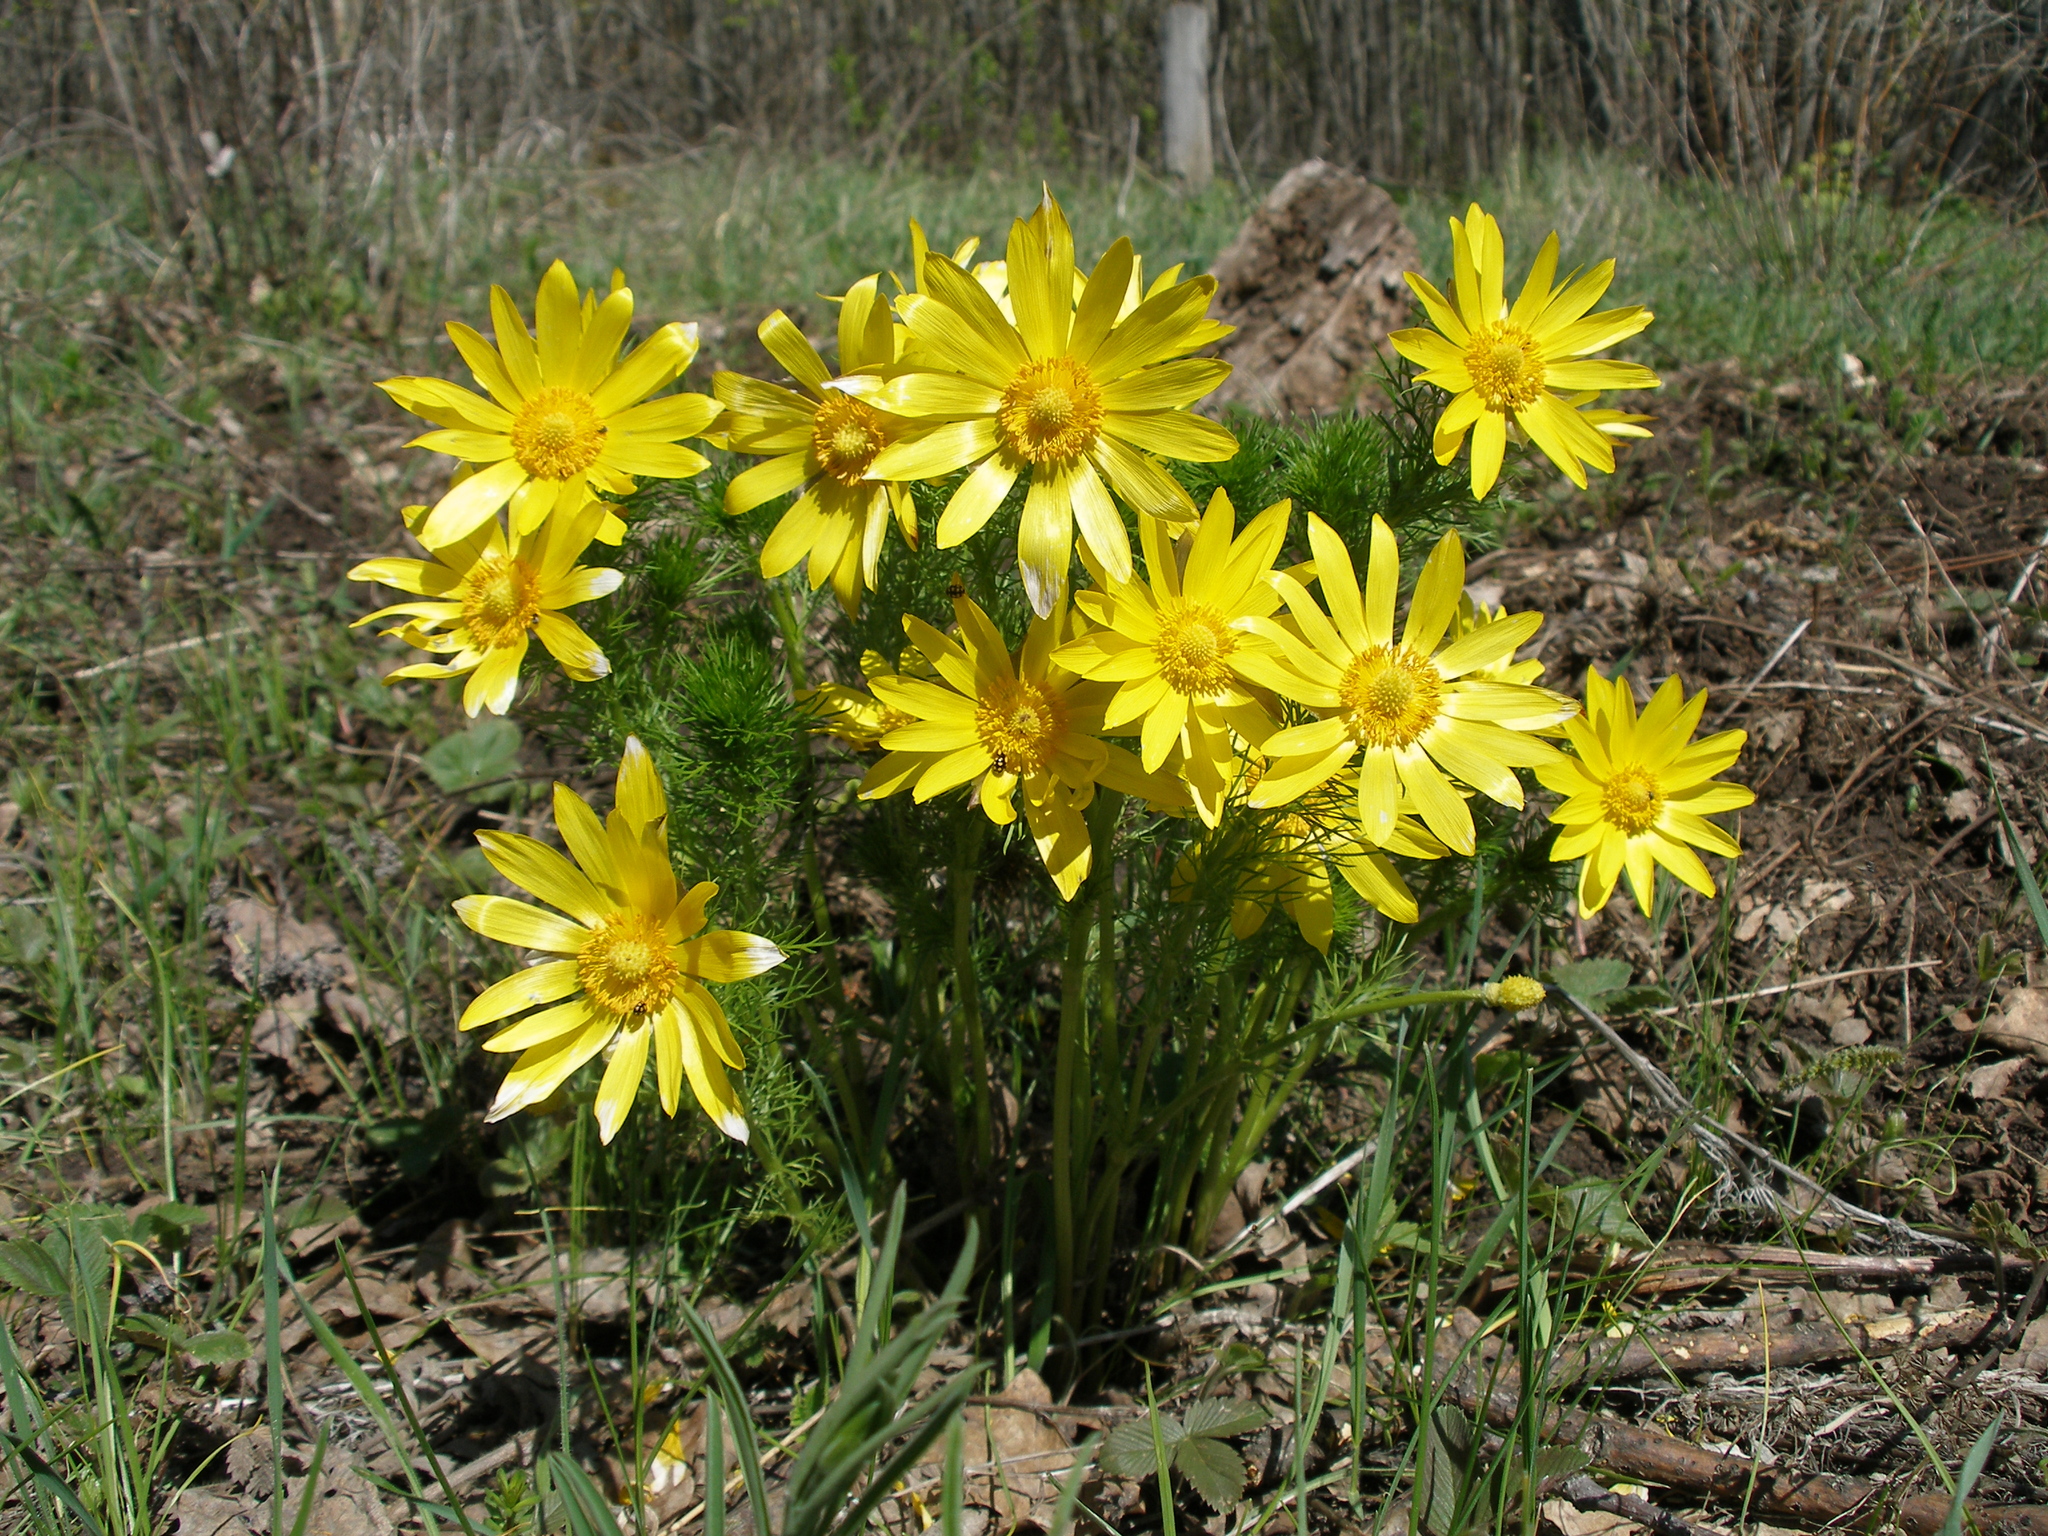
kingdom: Plantae
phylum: Tracheophyta
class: Magnoliopsida
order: Ranunculales
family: Ranunculaceae
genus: Adonis
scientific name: Adonis vernalis
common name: Yellow pheasants-eye
